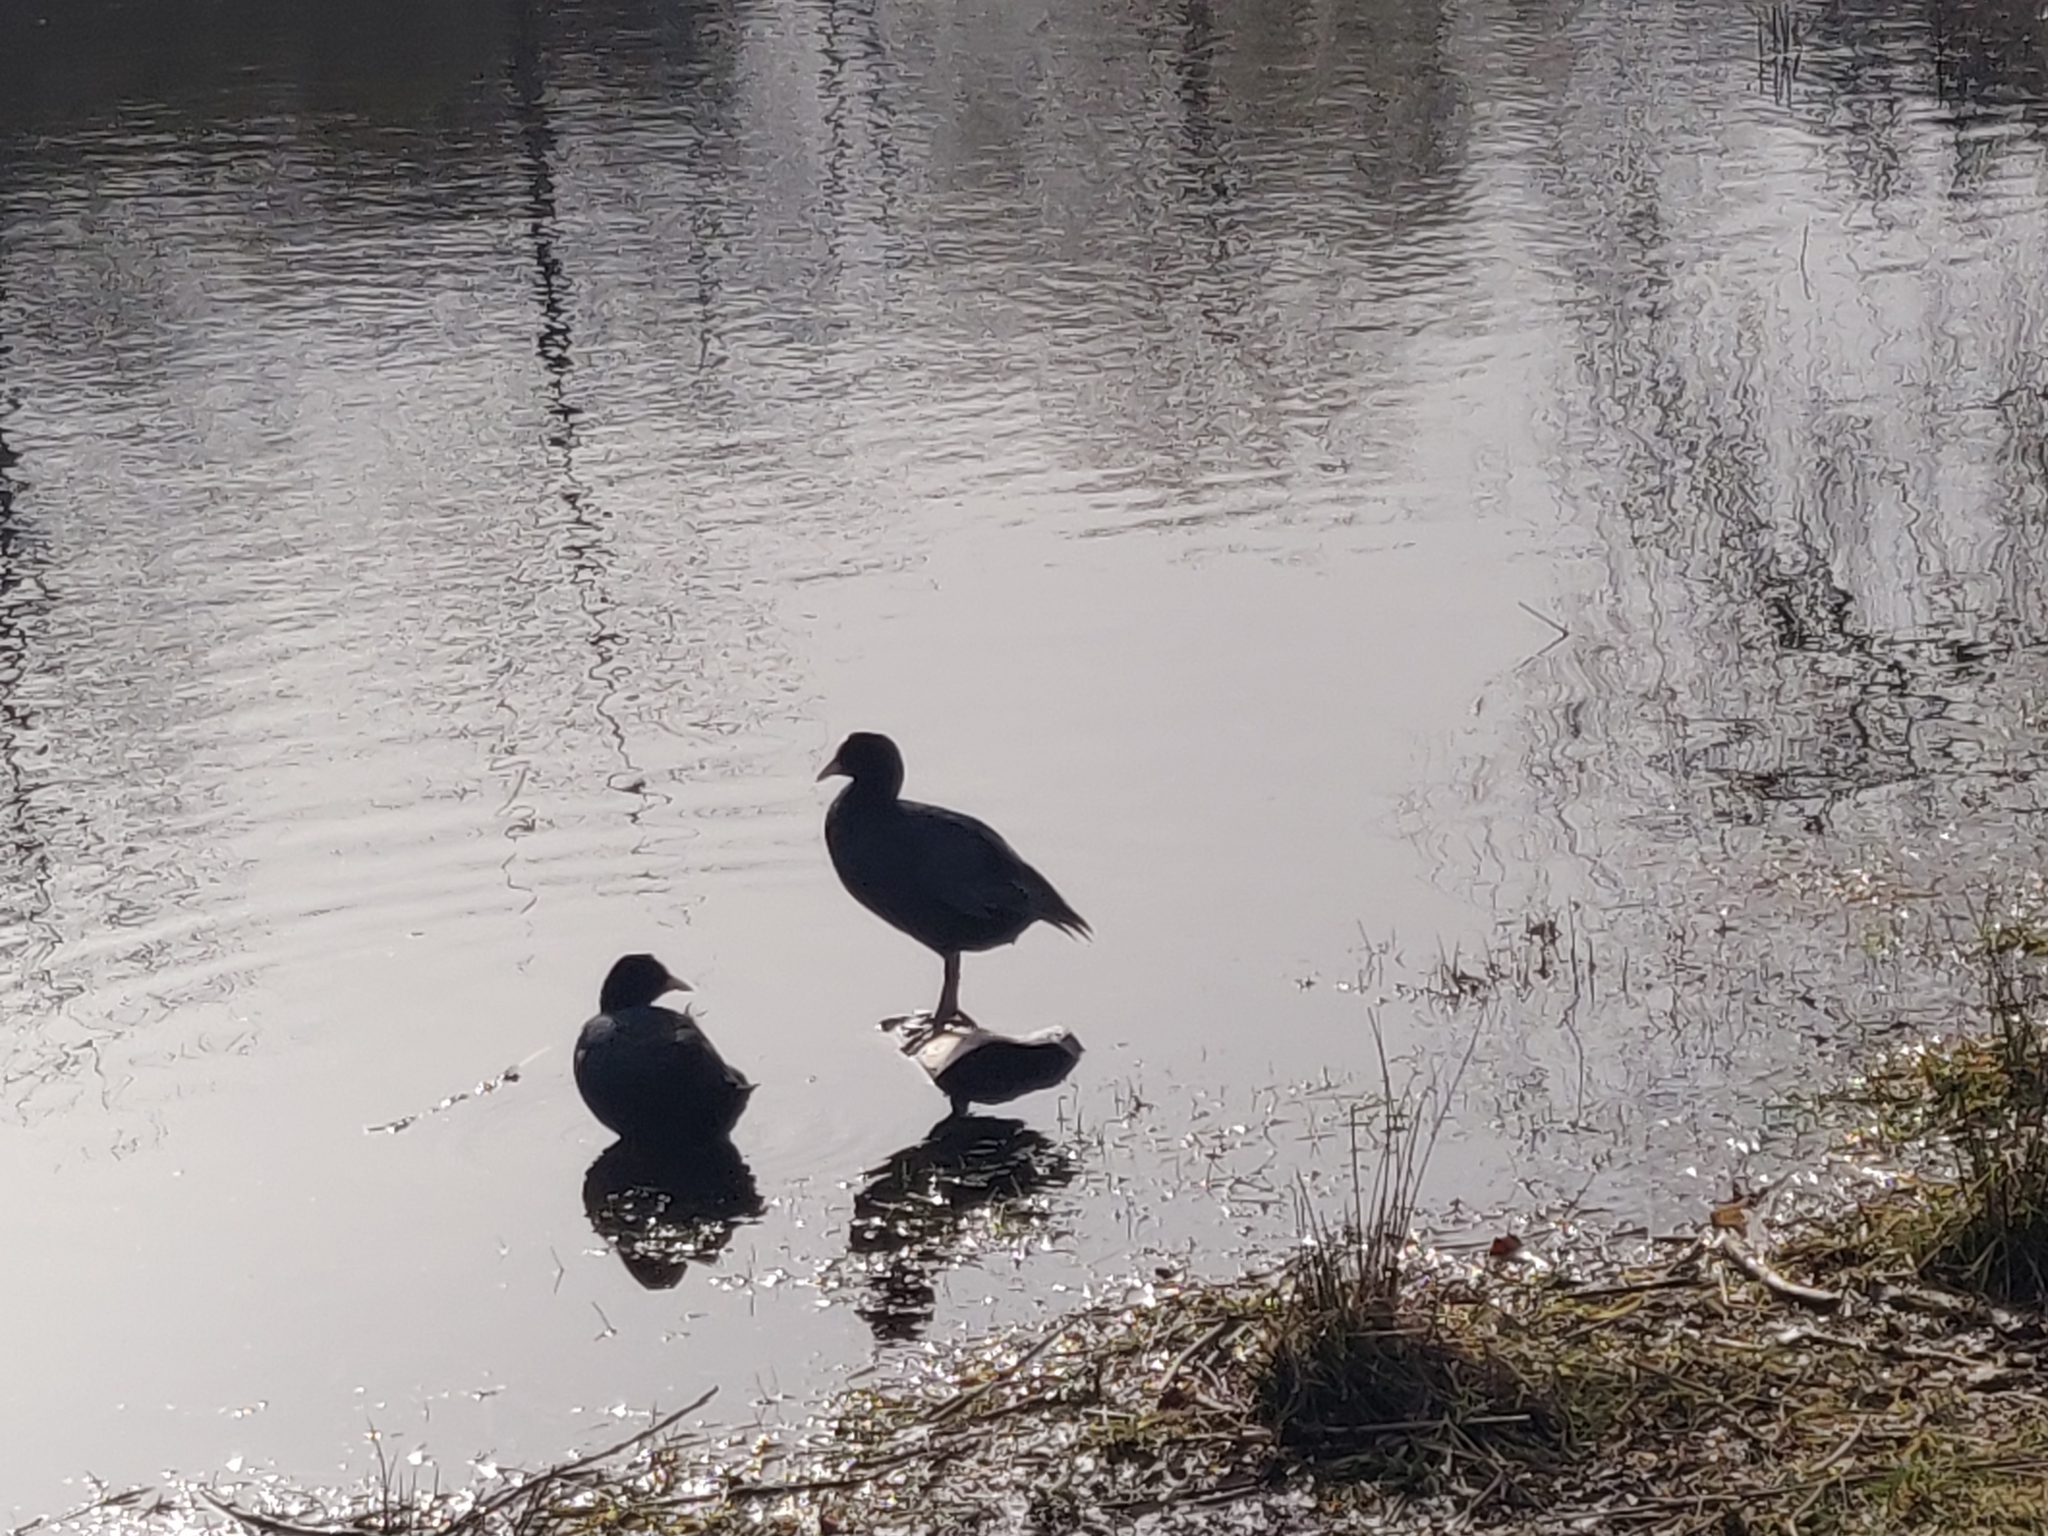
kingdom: Animalia
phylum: Chordata
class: Aves
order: Gruiformes
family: Rallidae
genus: Fulica
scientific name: Fulica atra
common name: Eurasian coot
